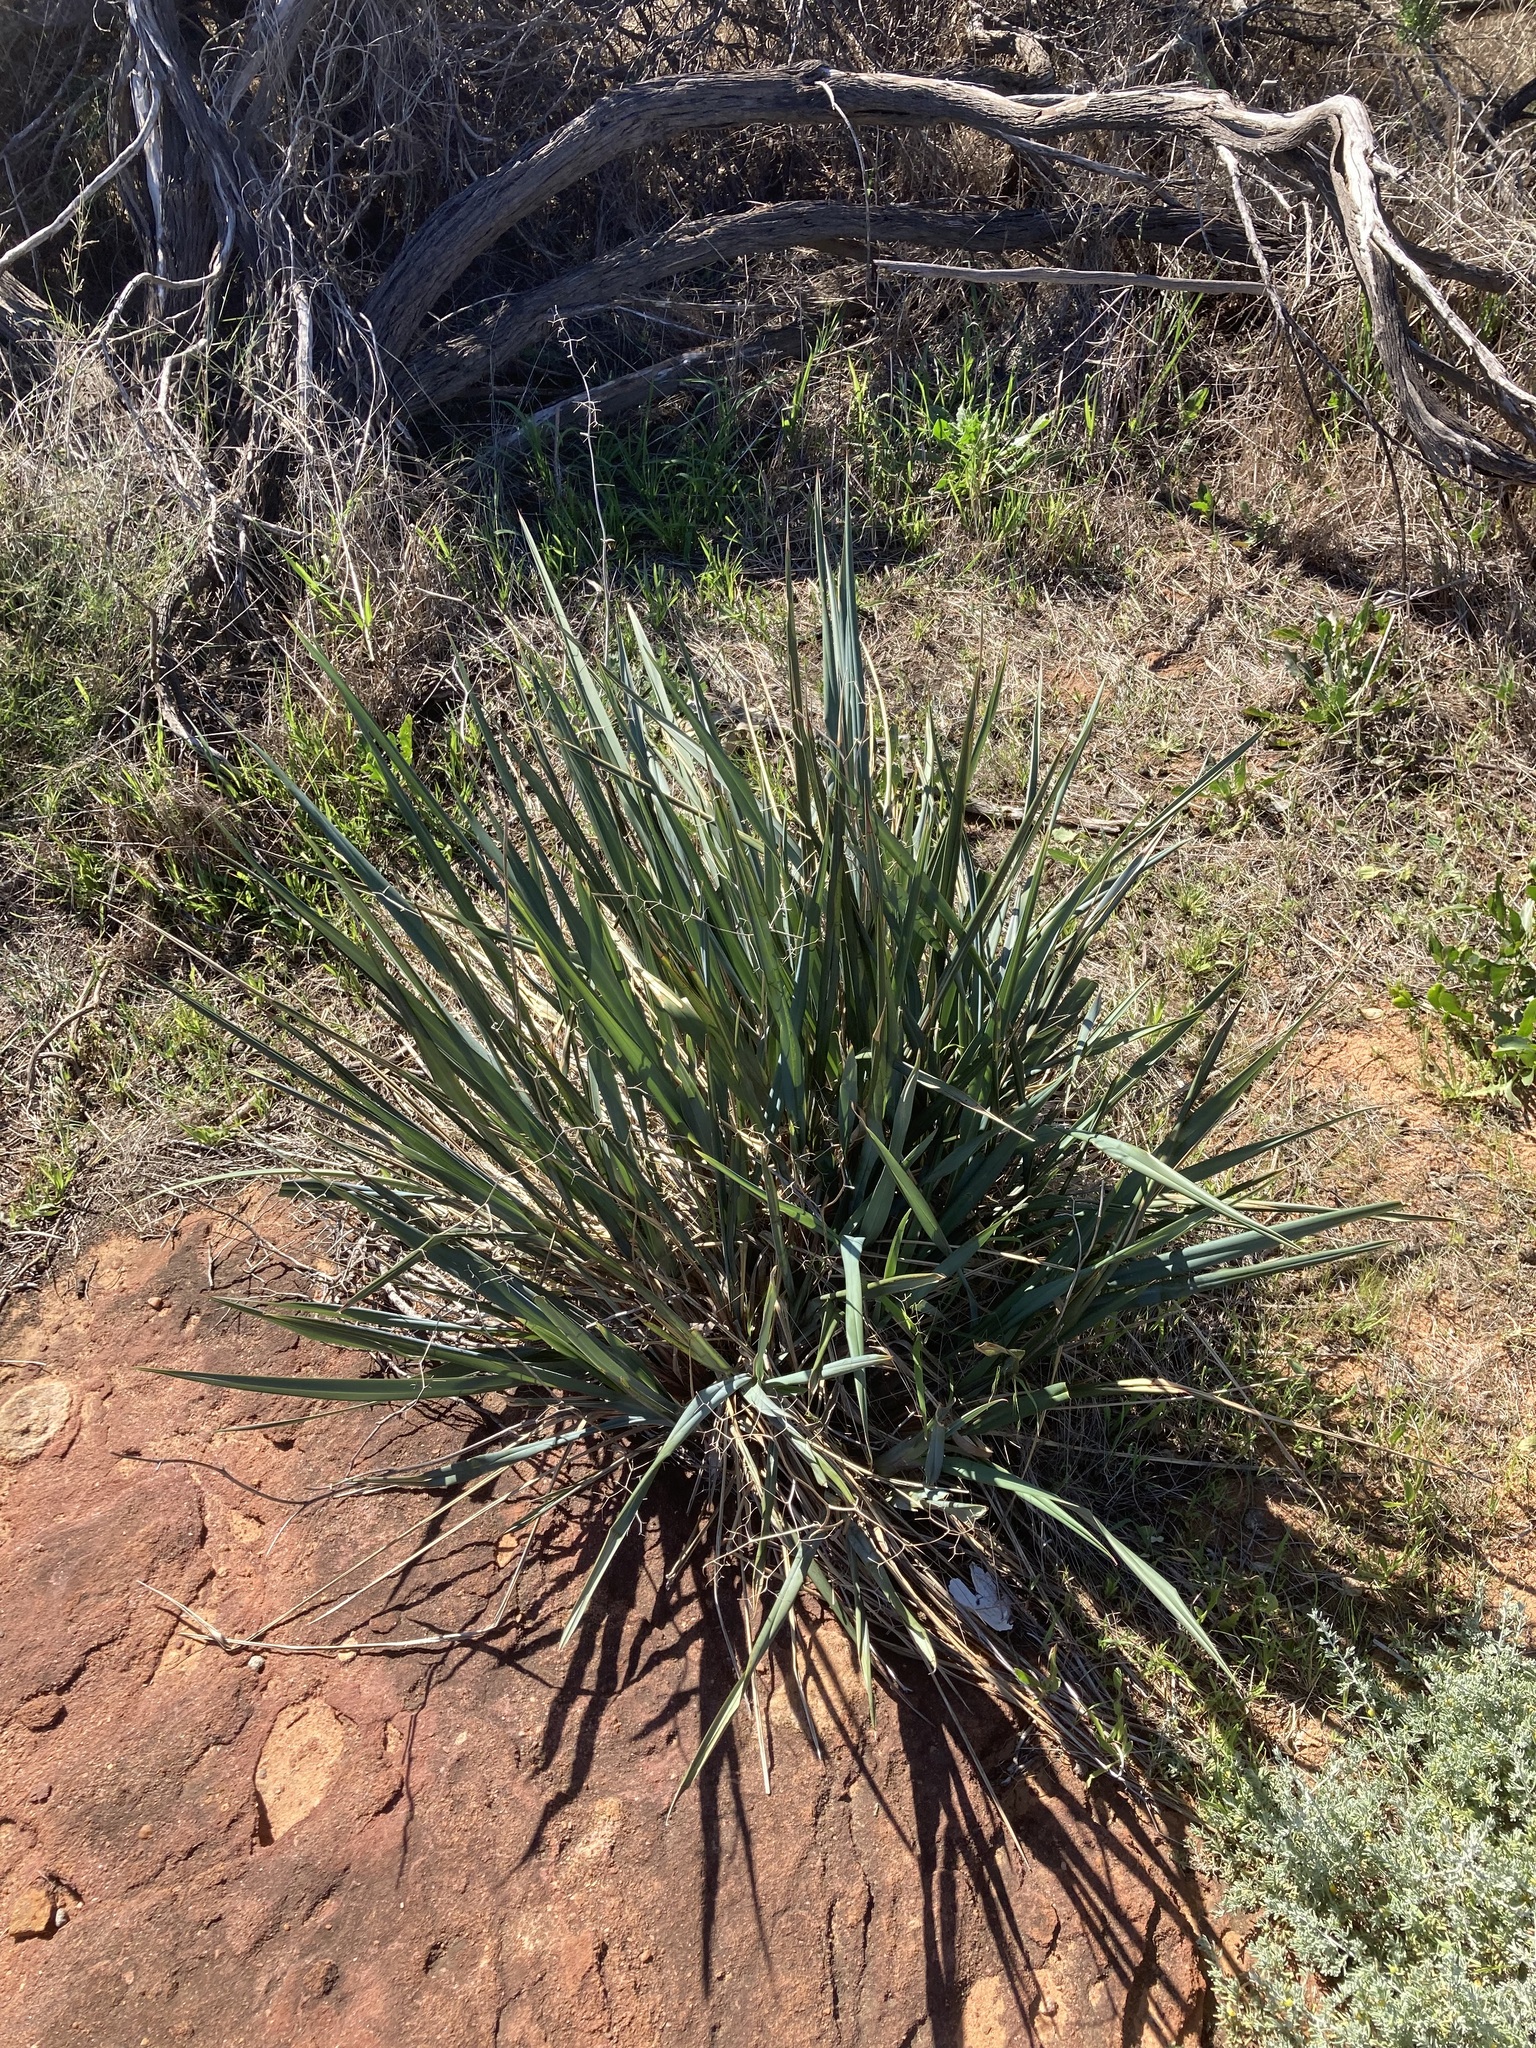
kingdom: Plantae
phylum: Tracheophyta
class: Liliopsida
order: Asparagales
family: Asphodelaceae
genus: Dianella
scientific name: Dianella revoluta
